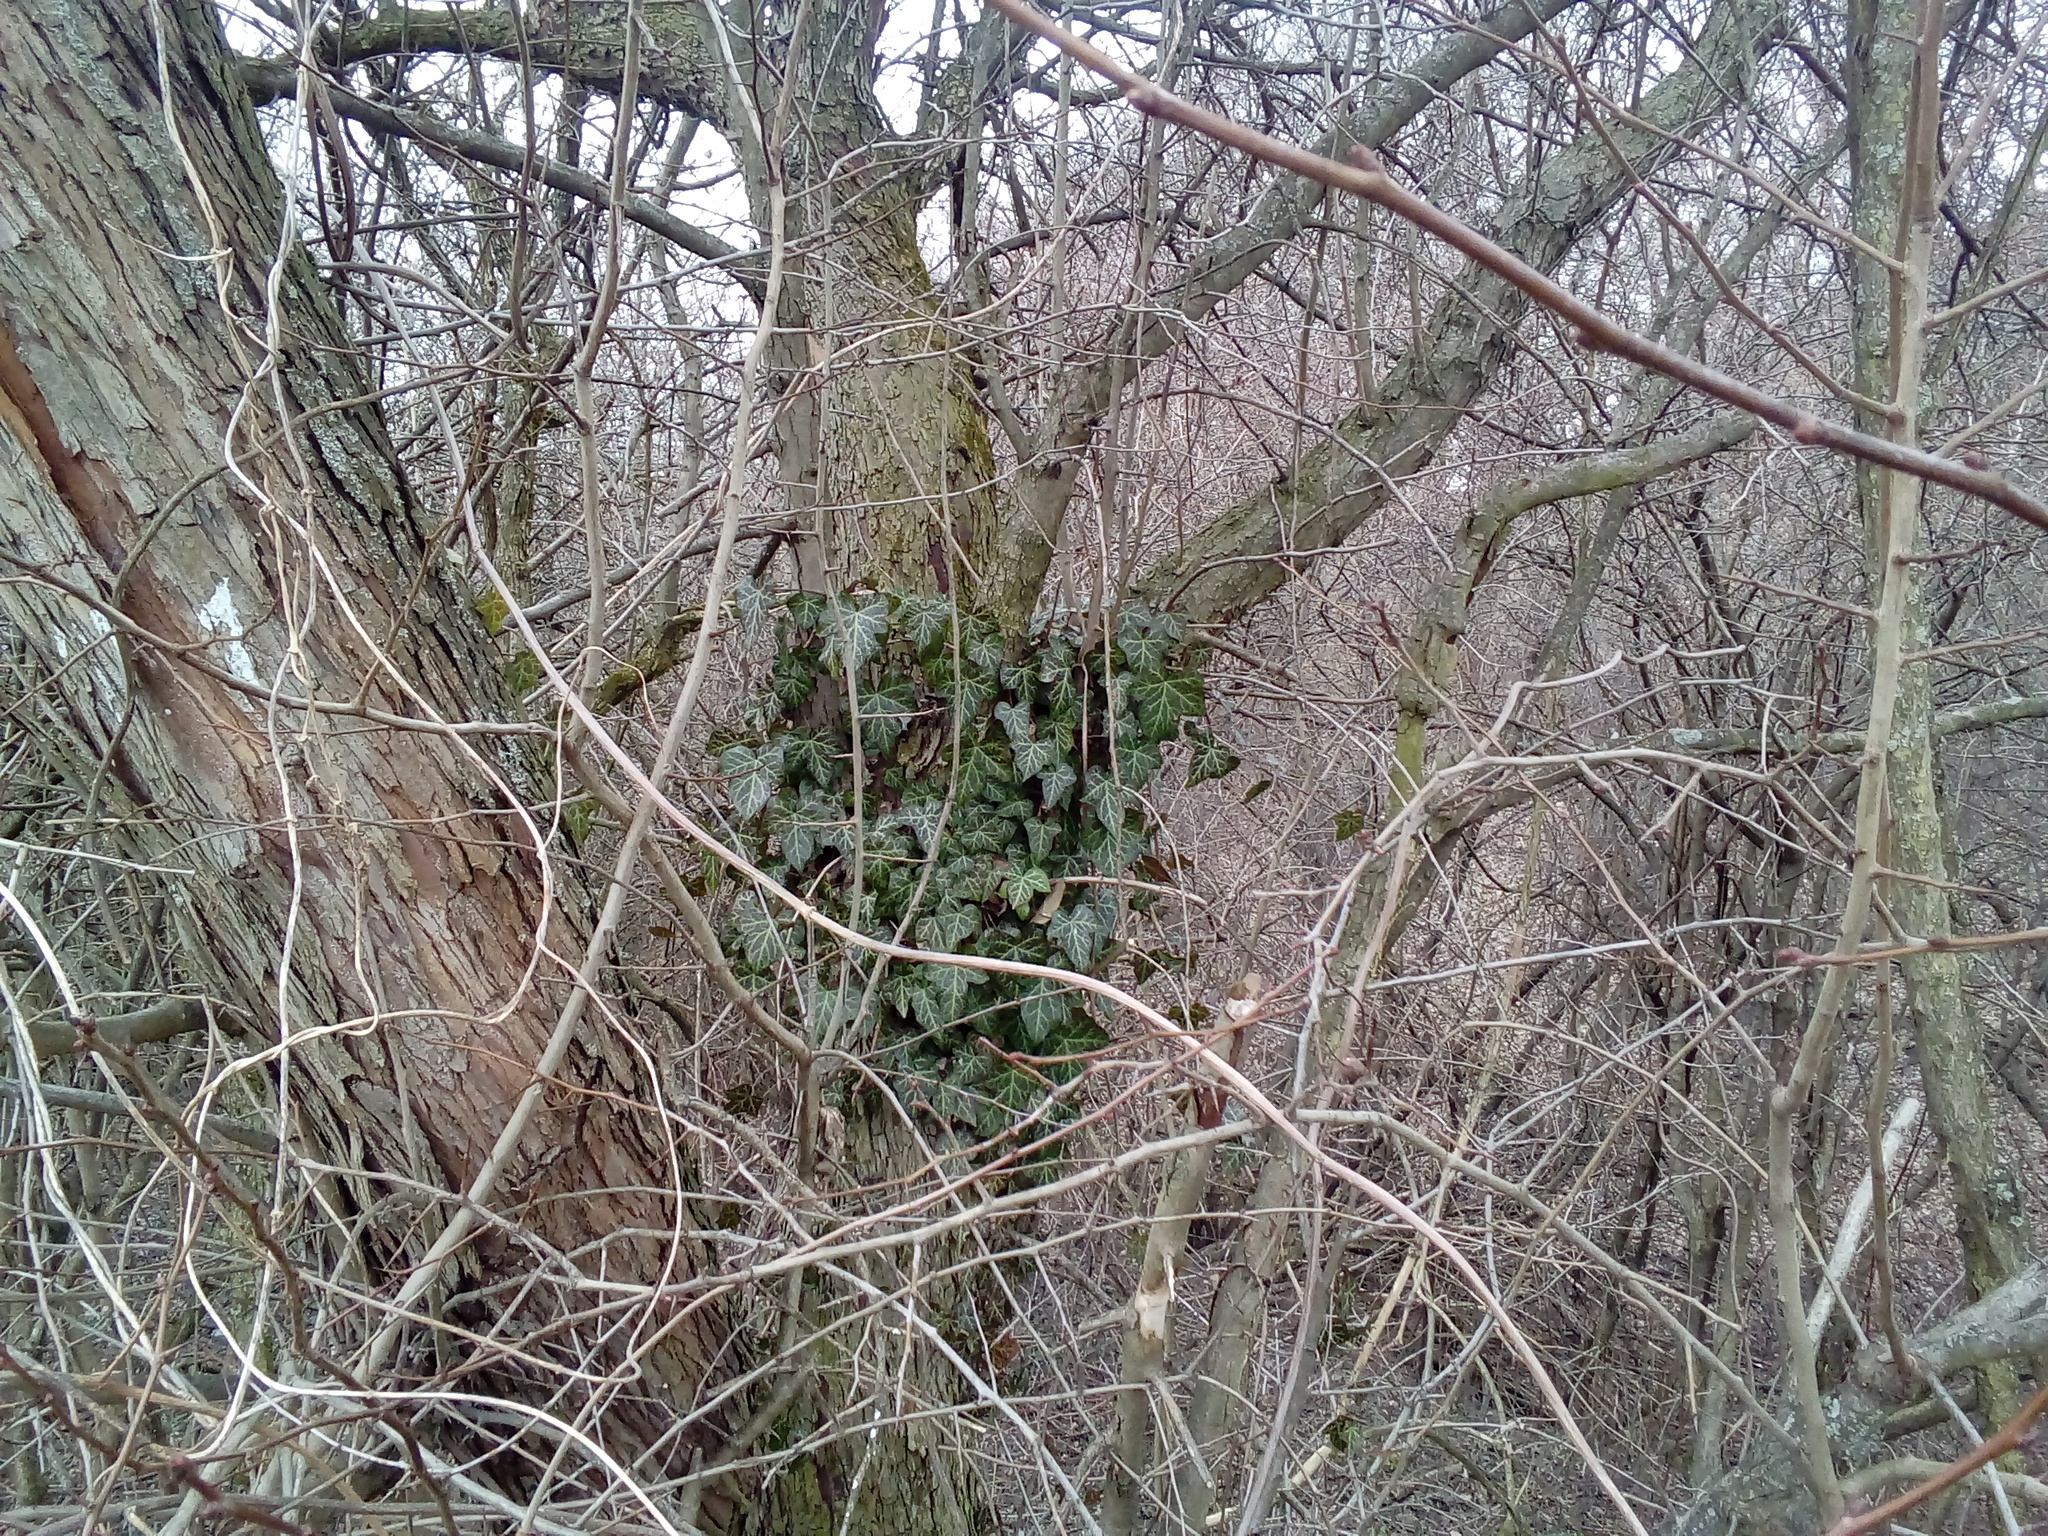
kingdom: Plantae
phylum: Tracheophyta
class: Magnoliopsida
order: Apiales
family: Araliaceae
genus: Hedera
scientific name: Hedera helix
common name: Ivy
